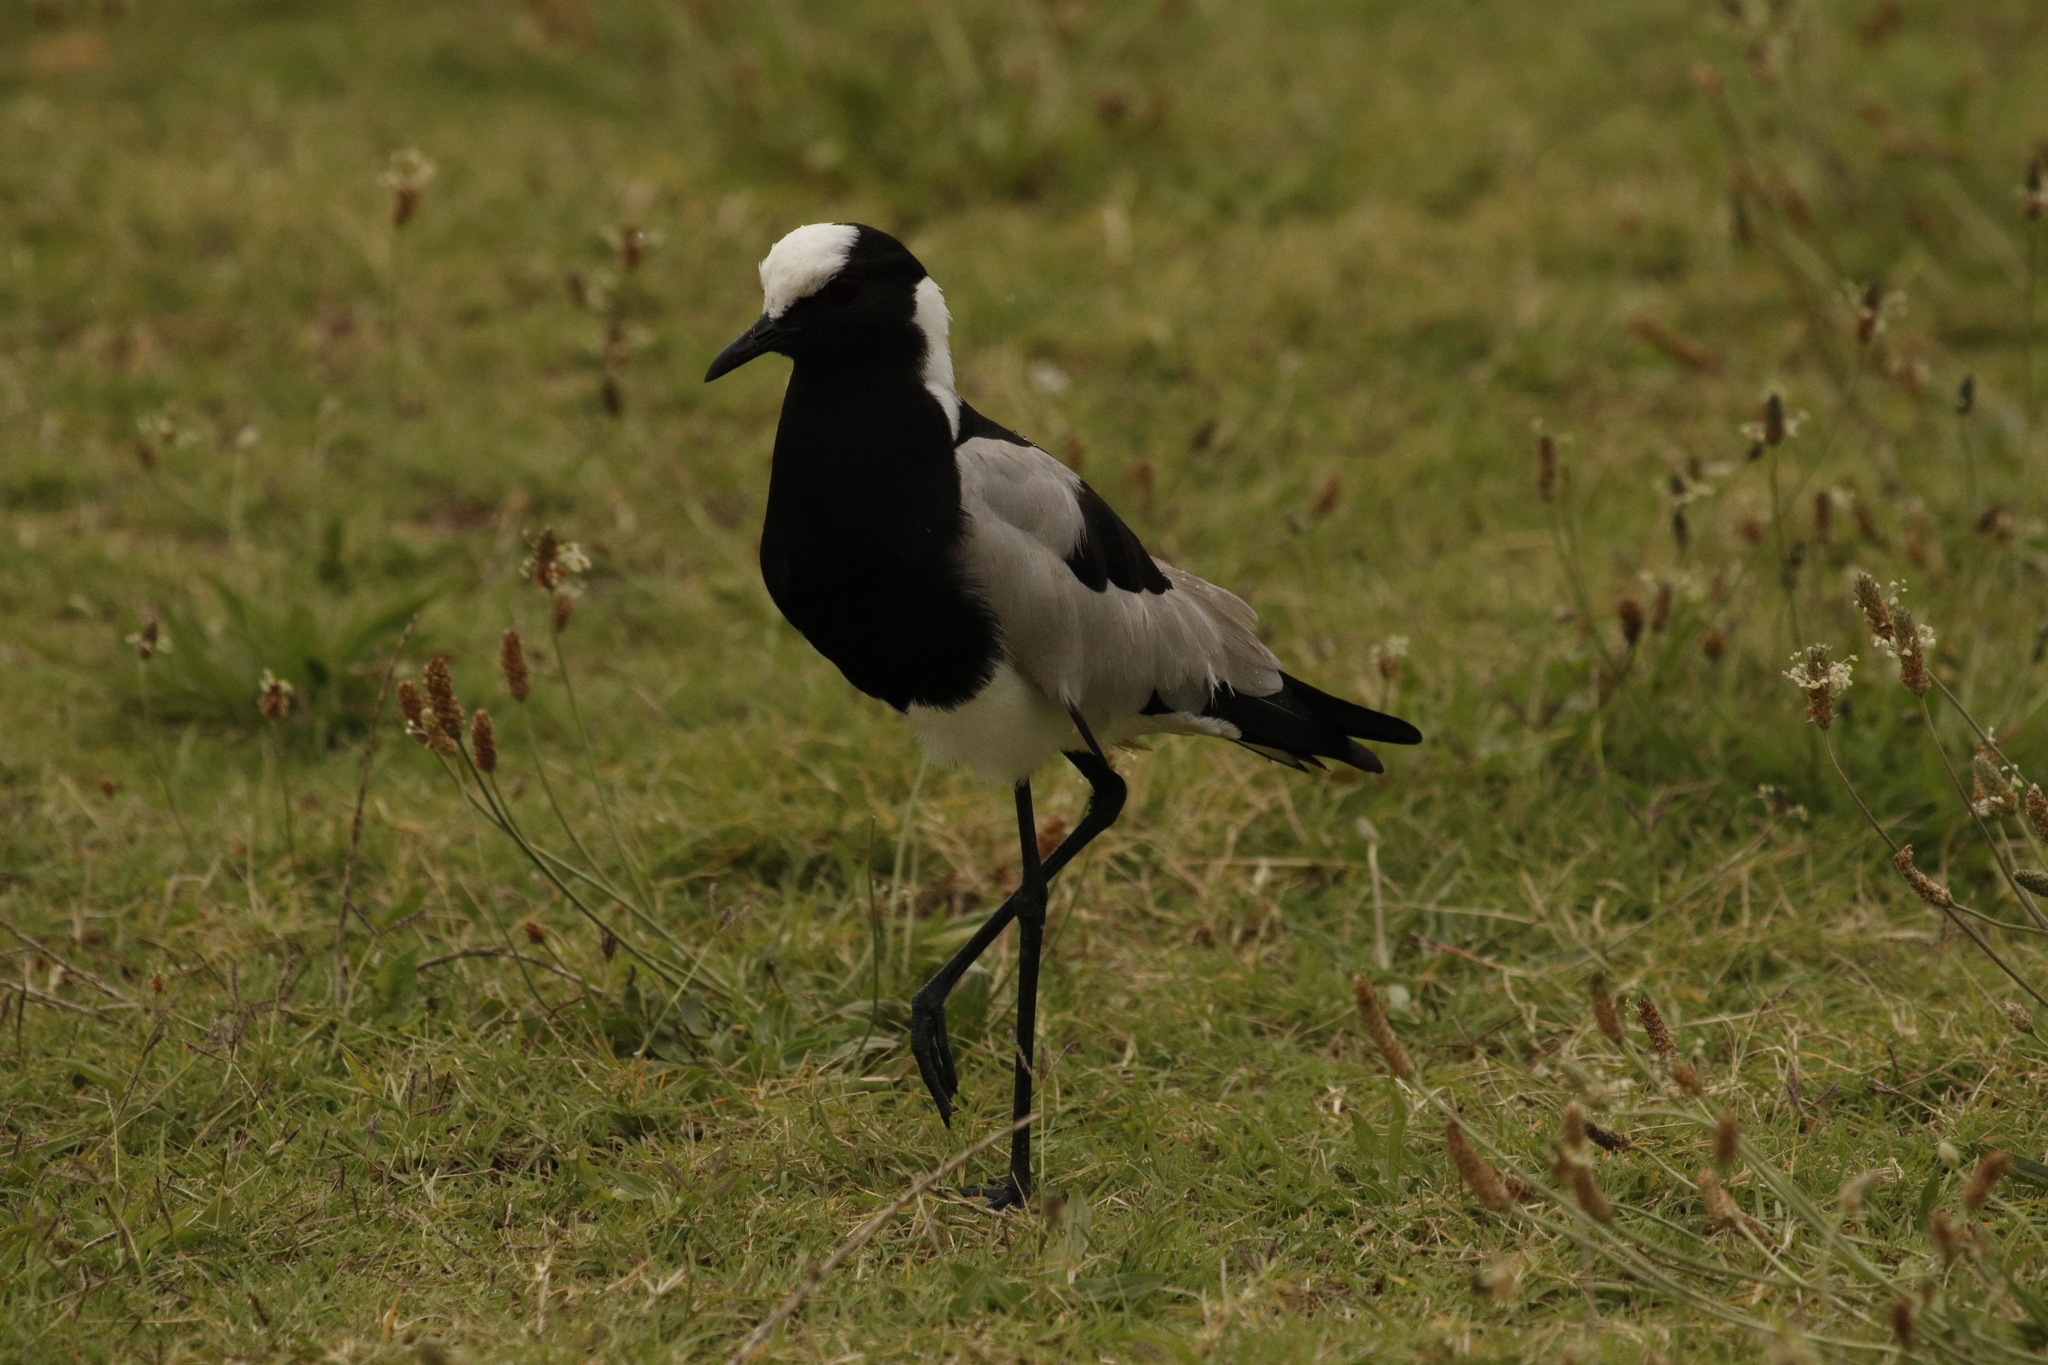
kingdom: Animalia
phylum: Chordata
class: Aves
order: Charadriiformes
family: Charadriidae
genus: Vanellus
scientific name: Vanellus armatus
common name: Blacksmith lapwing
